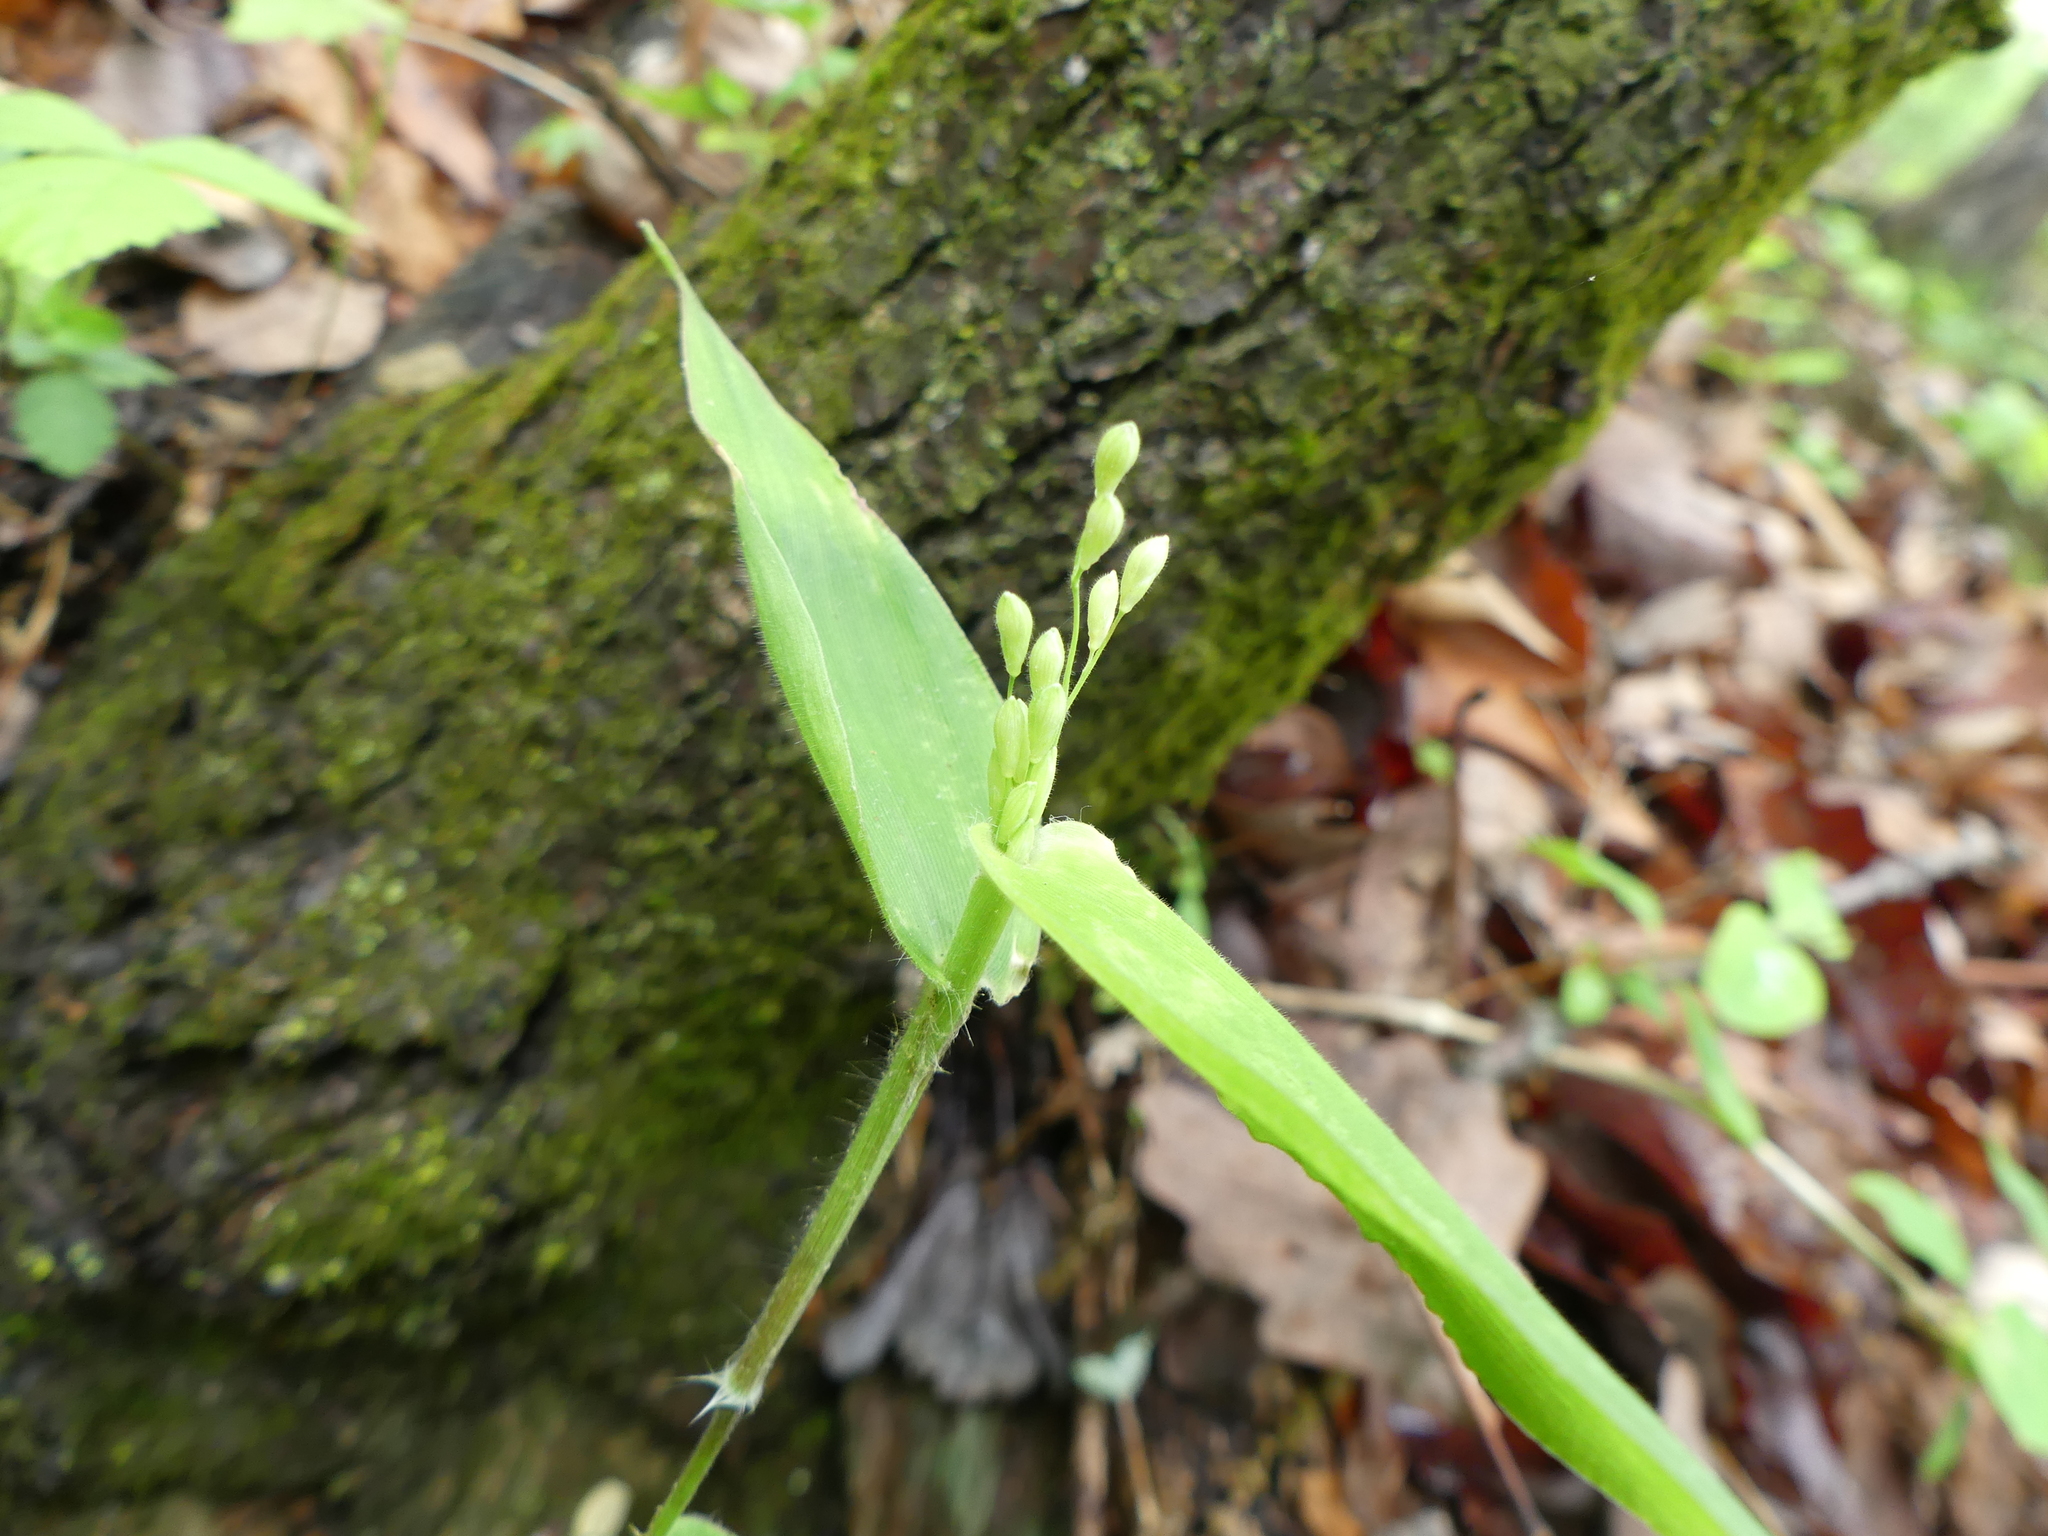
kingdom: Plantae
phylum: Tracheophyta
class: Liliopsida
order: Poales
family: Poaceae
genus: Dichanthelium
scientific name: Dichanthelium boscii
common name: Bosc's panic grass
